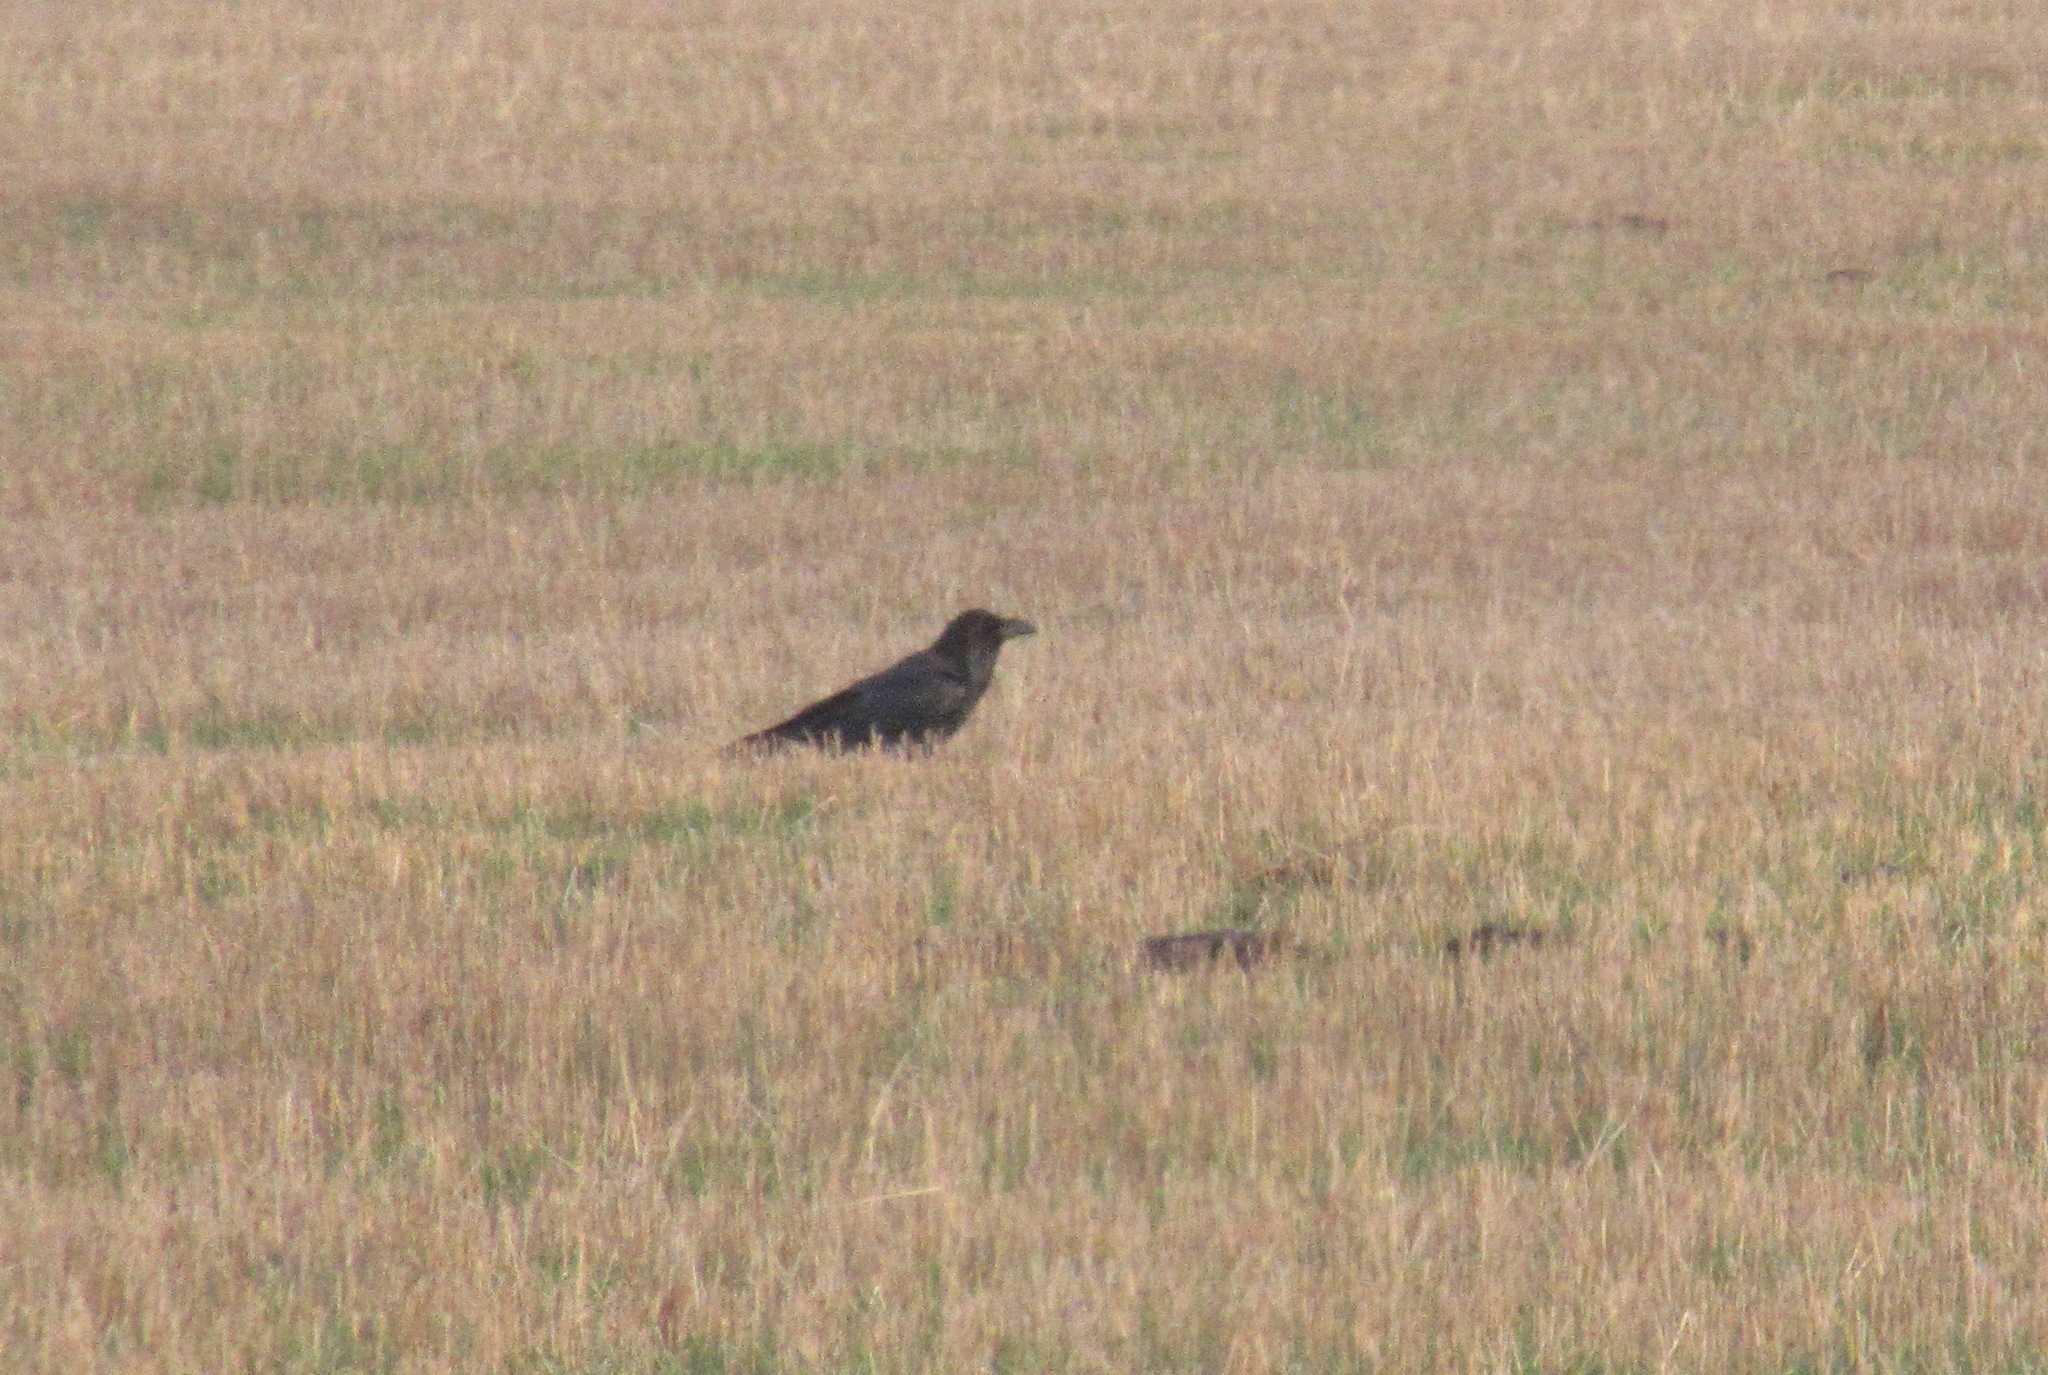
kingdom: Animalia
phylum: Chordata
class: Aves
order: Passeriformes
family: Corvidae
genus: Corvus
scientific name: Corvus corax
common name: Common raven
